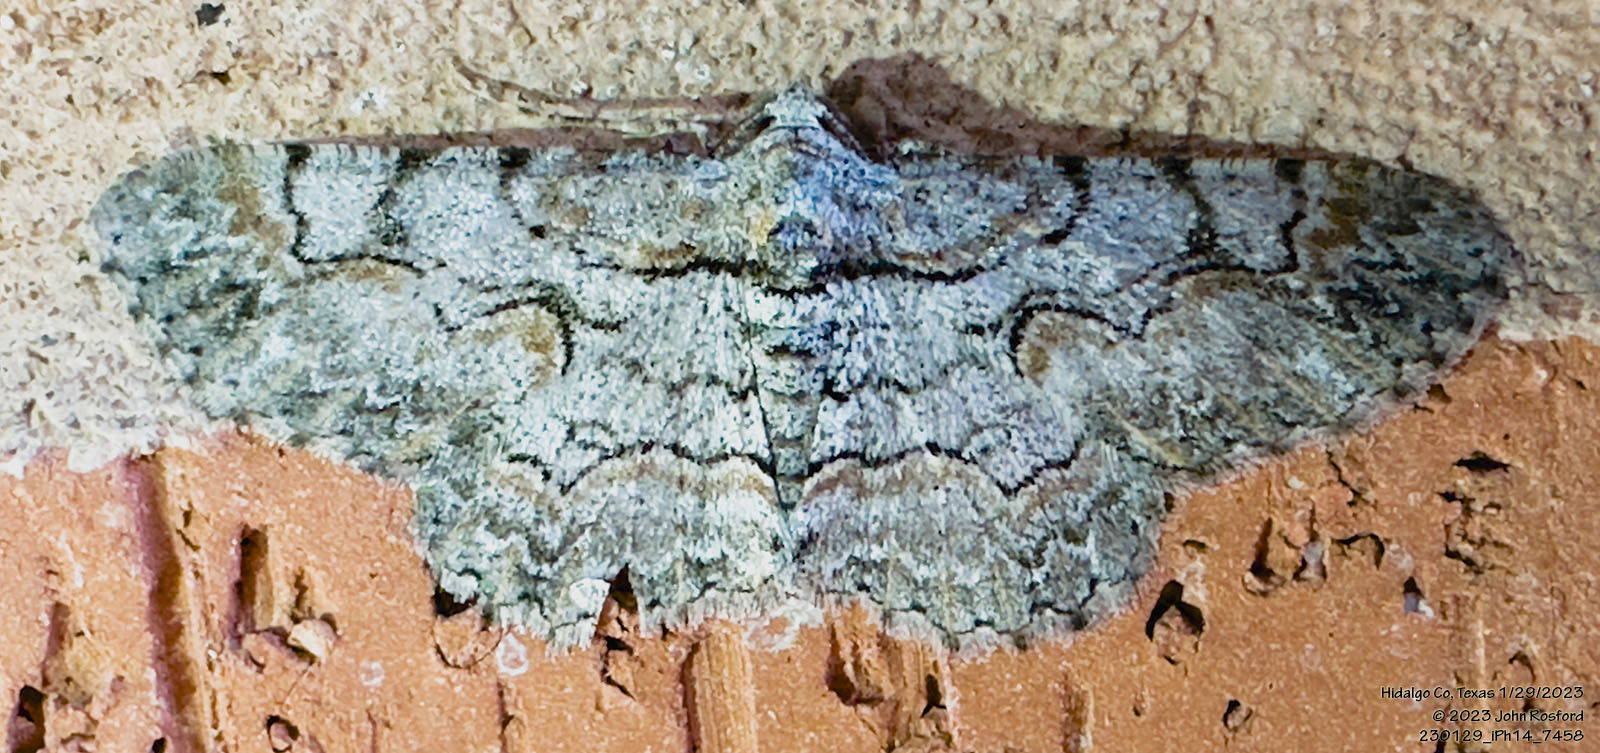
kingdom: Animalia
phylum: Arthropoda
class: Insecta
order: Lepidoptera
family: Geometridae
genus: Iridopsis
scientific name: Iridopsis defectaria
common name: Brown-shaded gray
